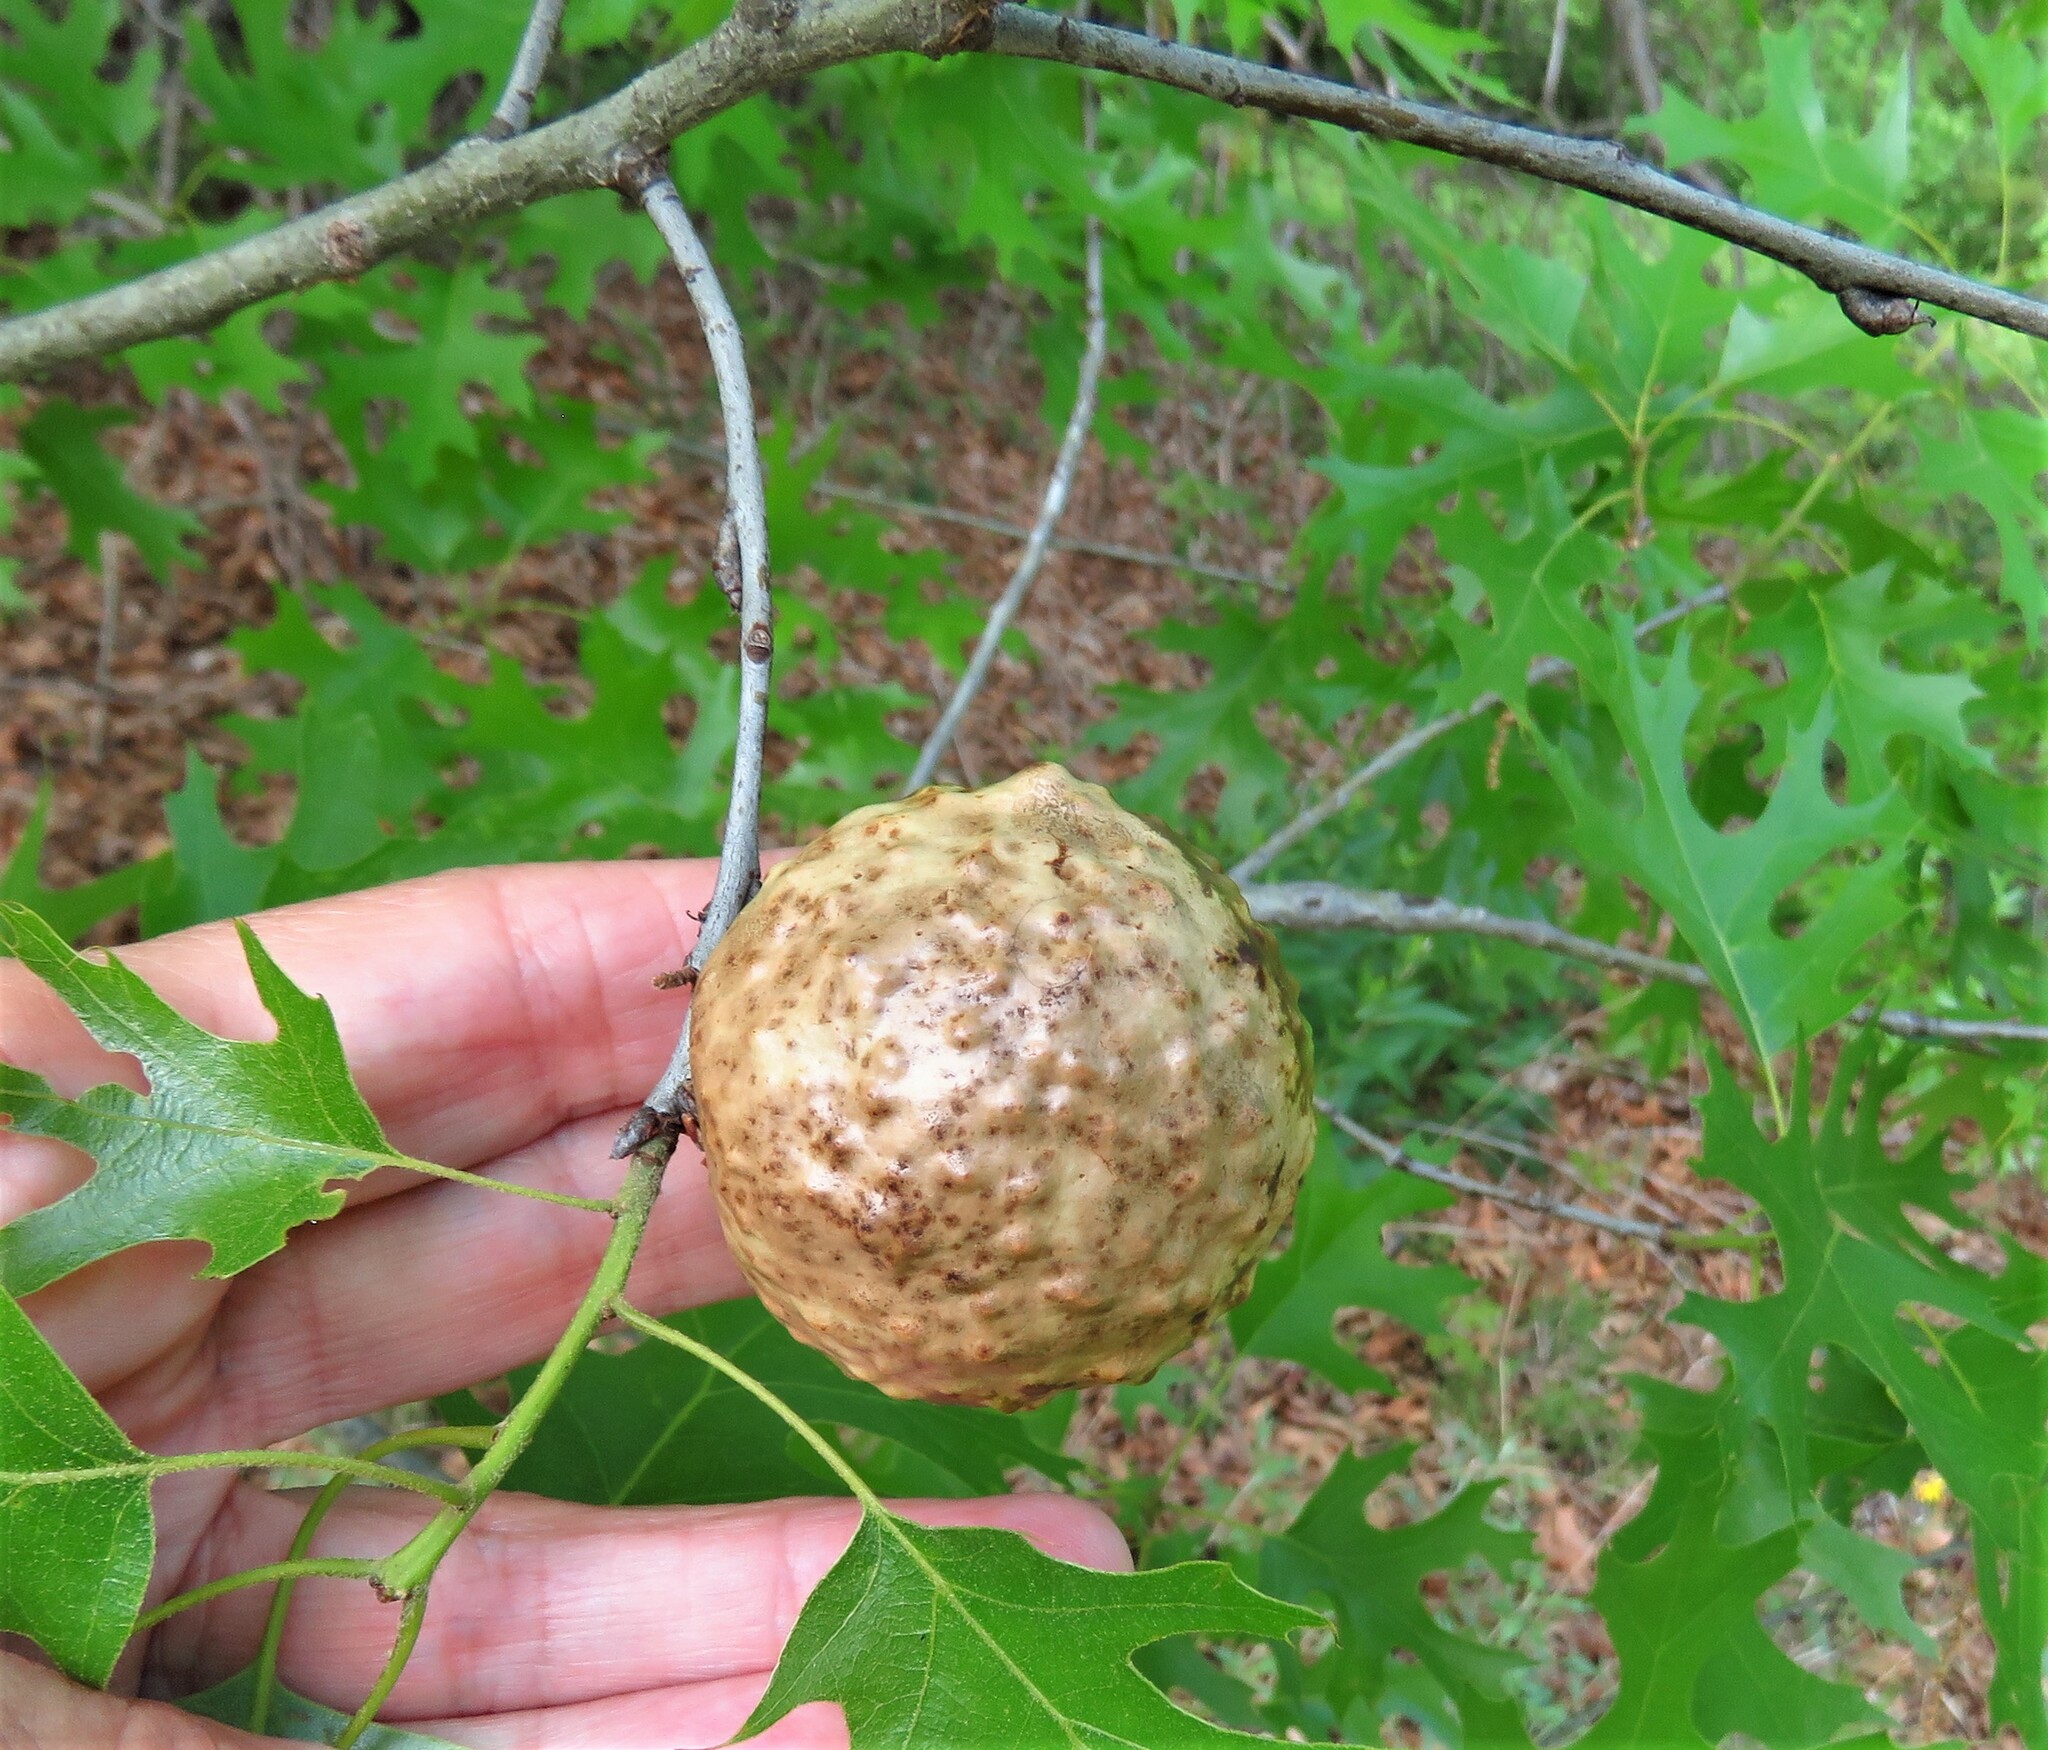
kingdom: Animalia
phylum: Arthropoda
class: Insecta
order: Hymenoptera
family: Cynipidae
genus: Amphibolips
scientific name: Amphibolips
